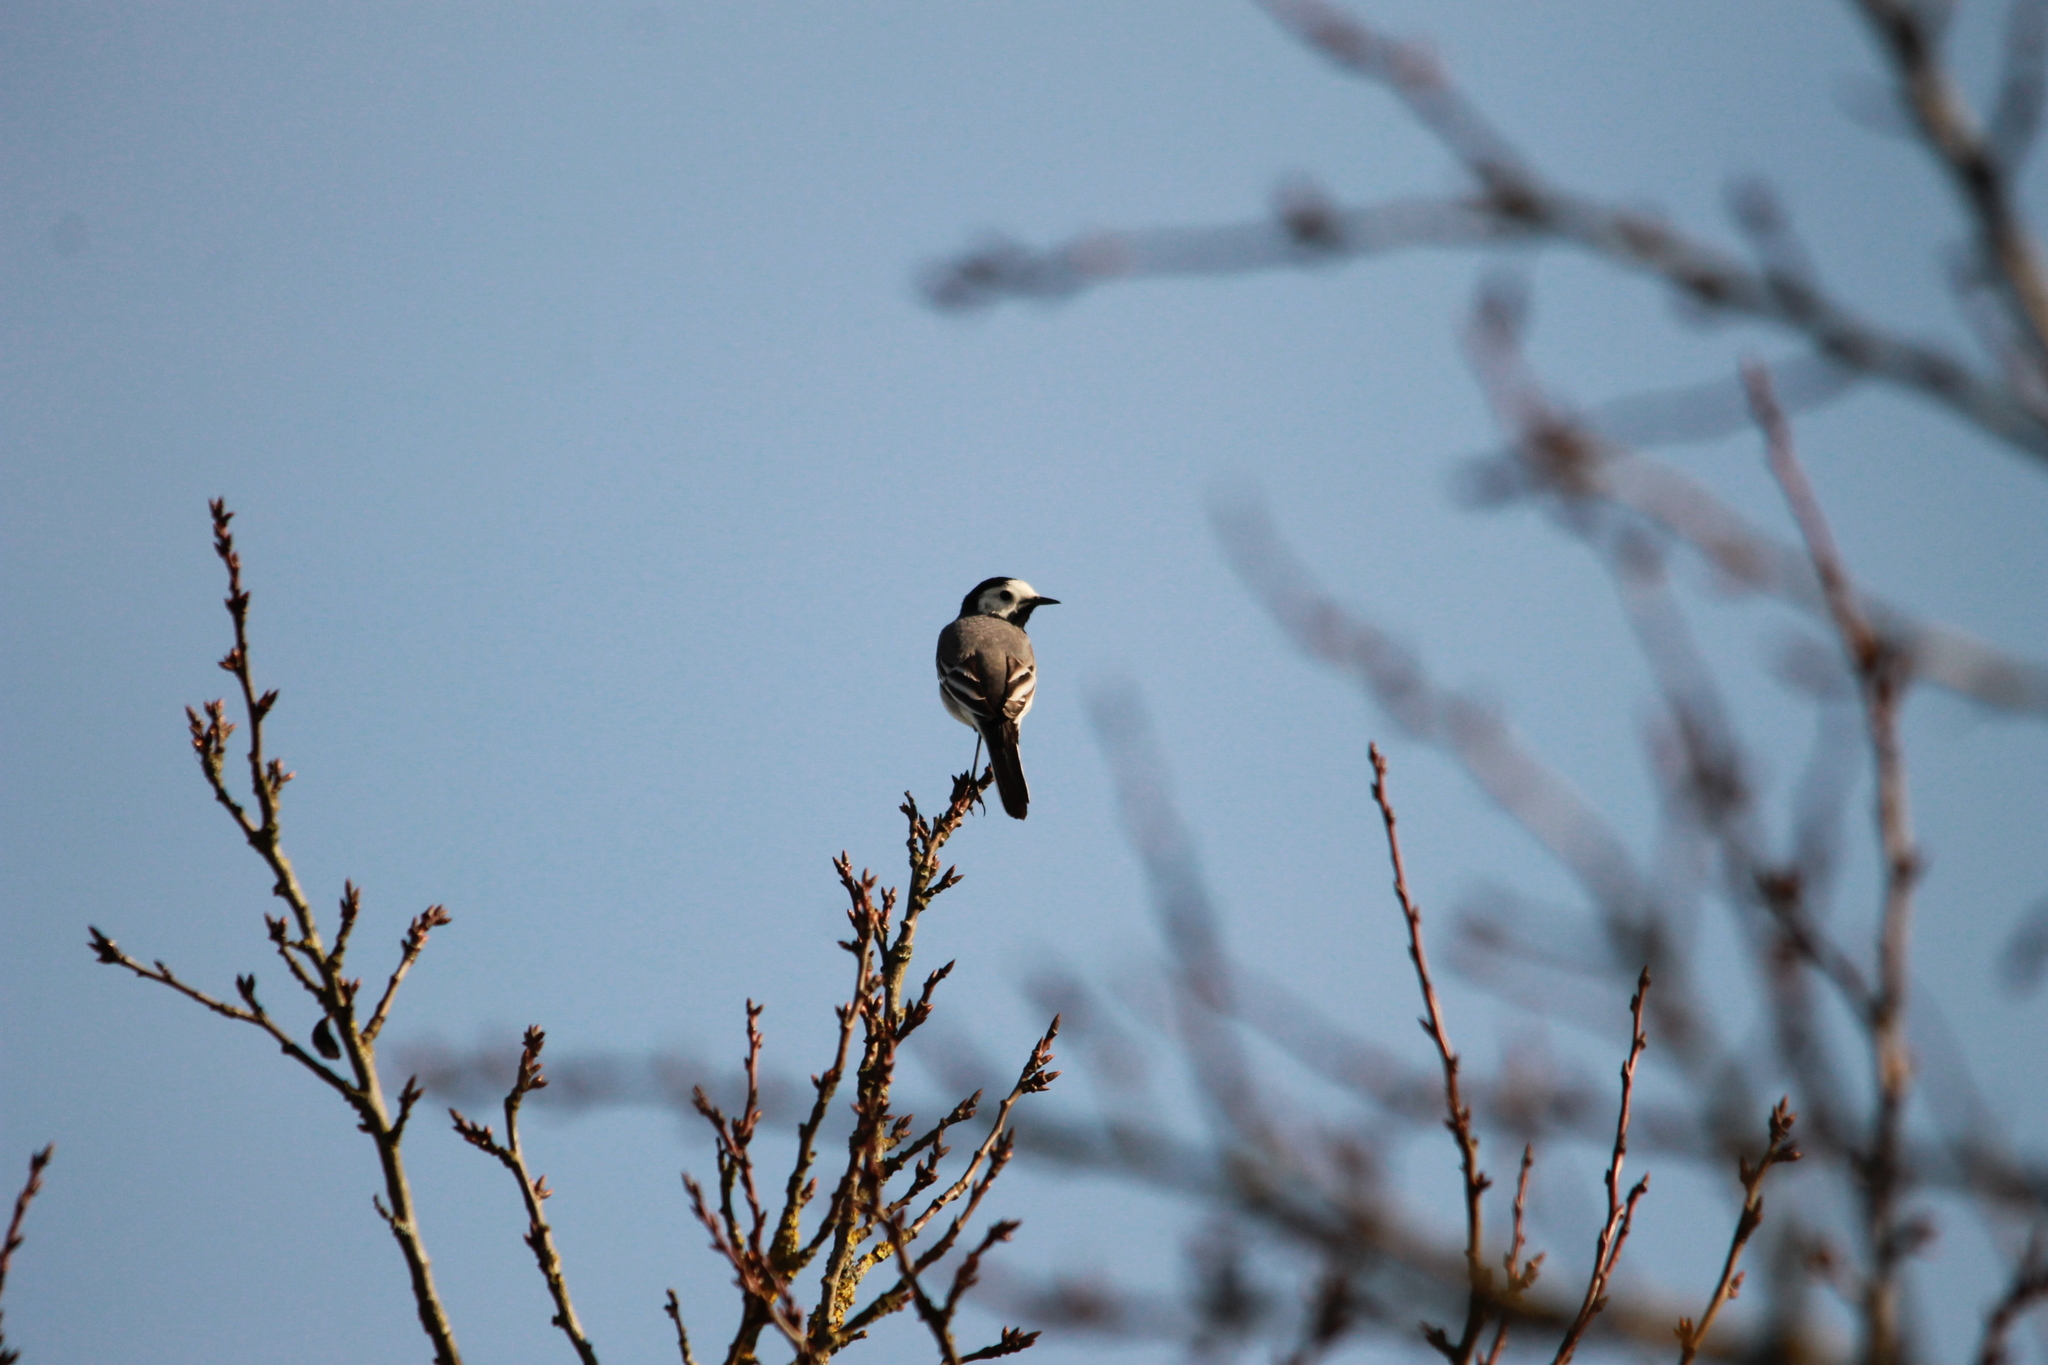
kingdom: Animalia
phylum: Chordata
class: Aves
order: Passeriformes
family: Motacillidae
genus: Motacilla
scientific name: Motacilla alba
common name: White wagtail
